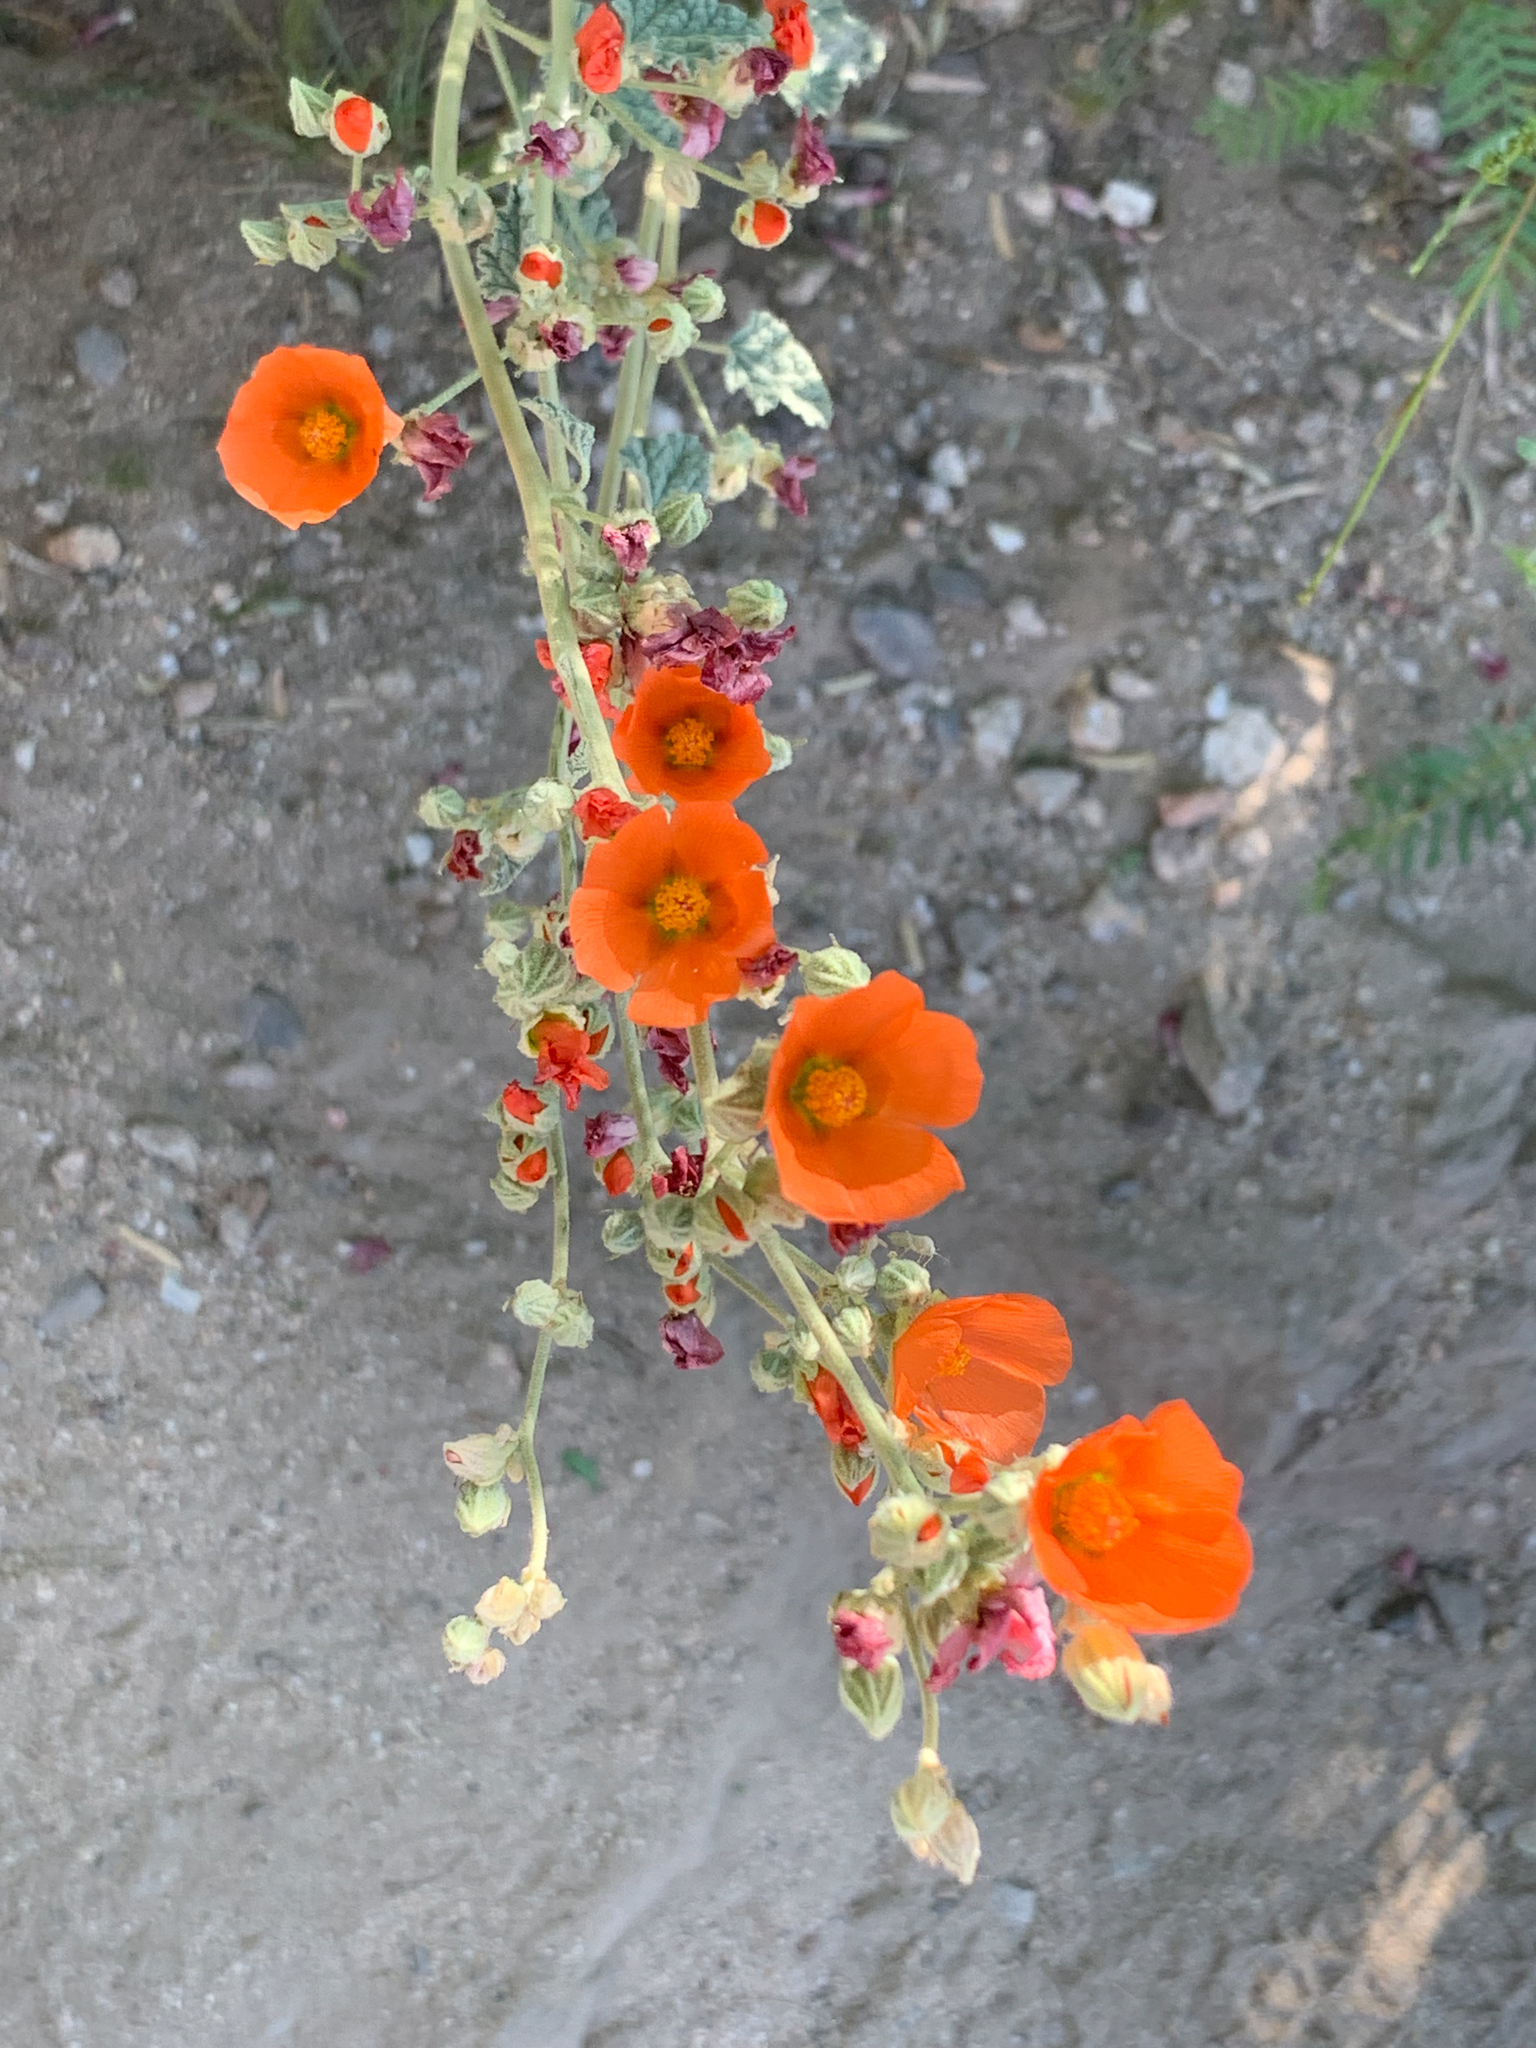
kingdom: Plantae
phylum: Tracheophyta
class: Magnoliopsida
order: Malvales
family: Malvaceae
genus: Sphaeralcea
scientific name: Sphaeralcea ambigua
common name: Apricot globe-mallow
